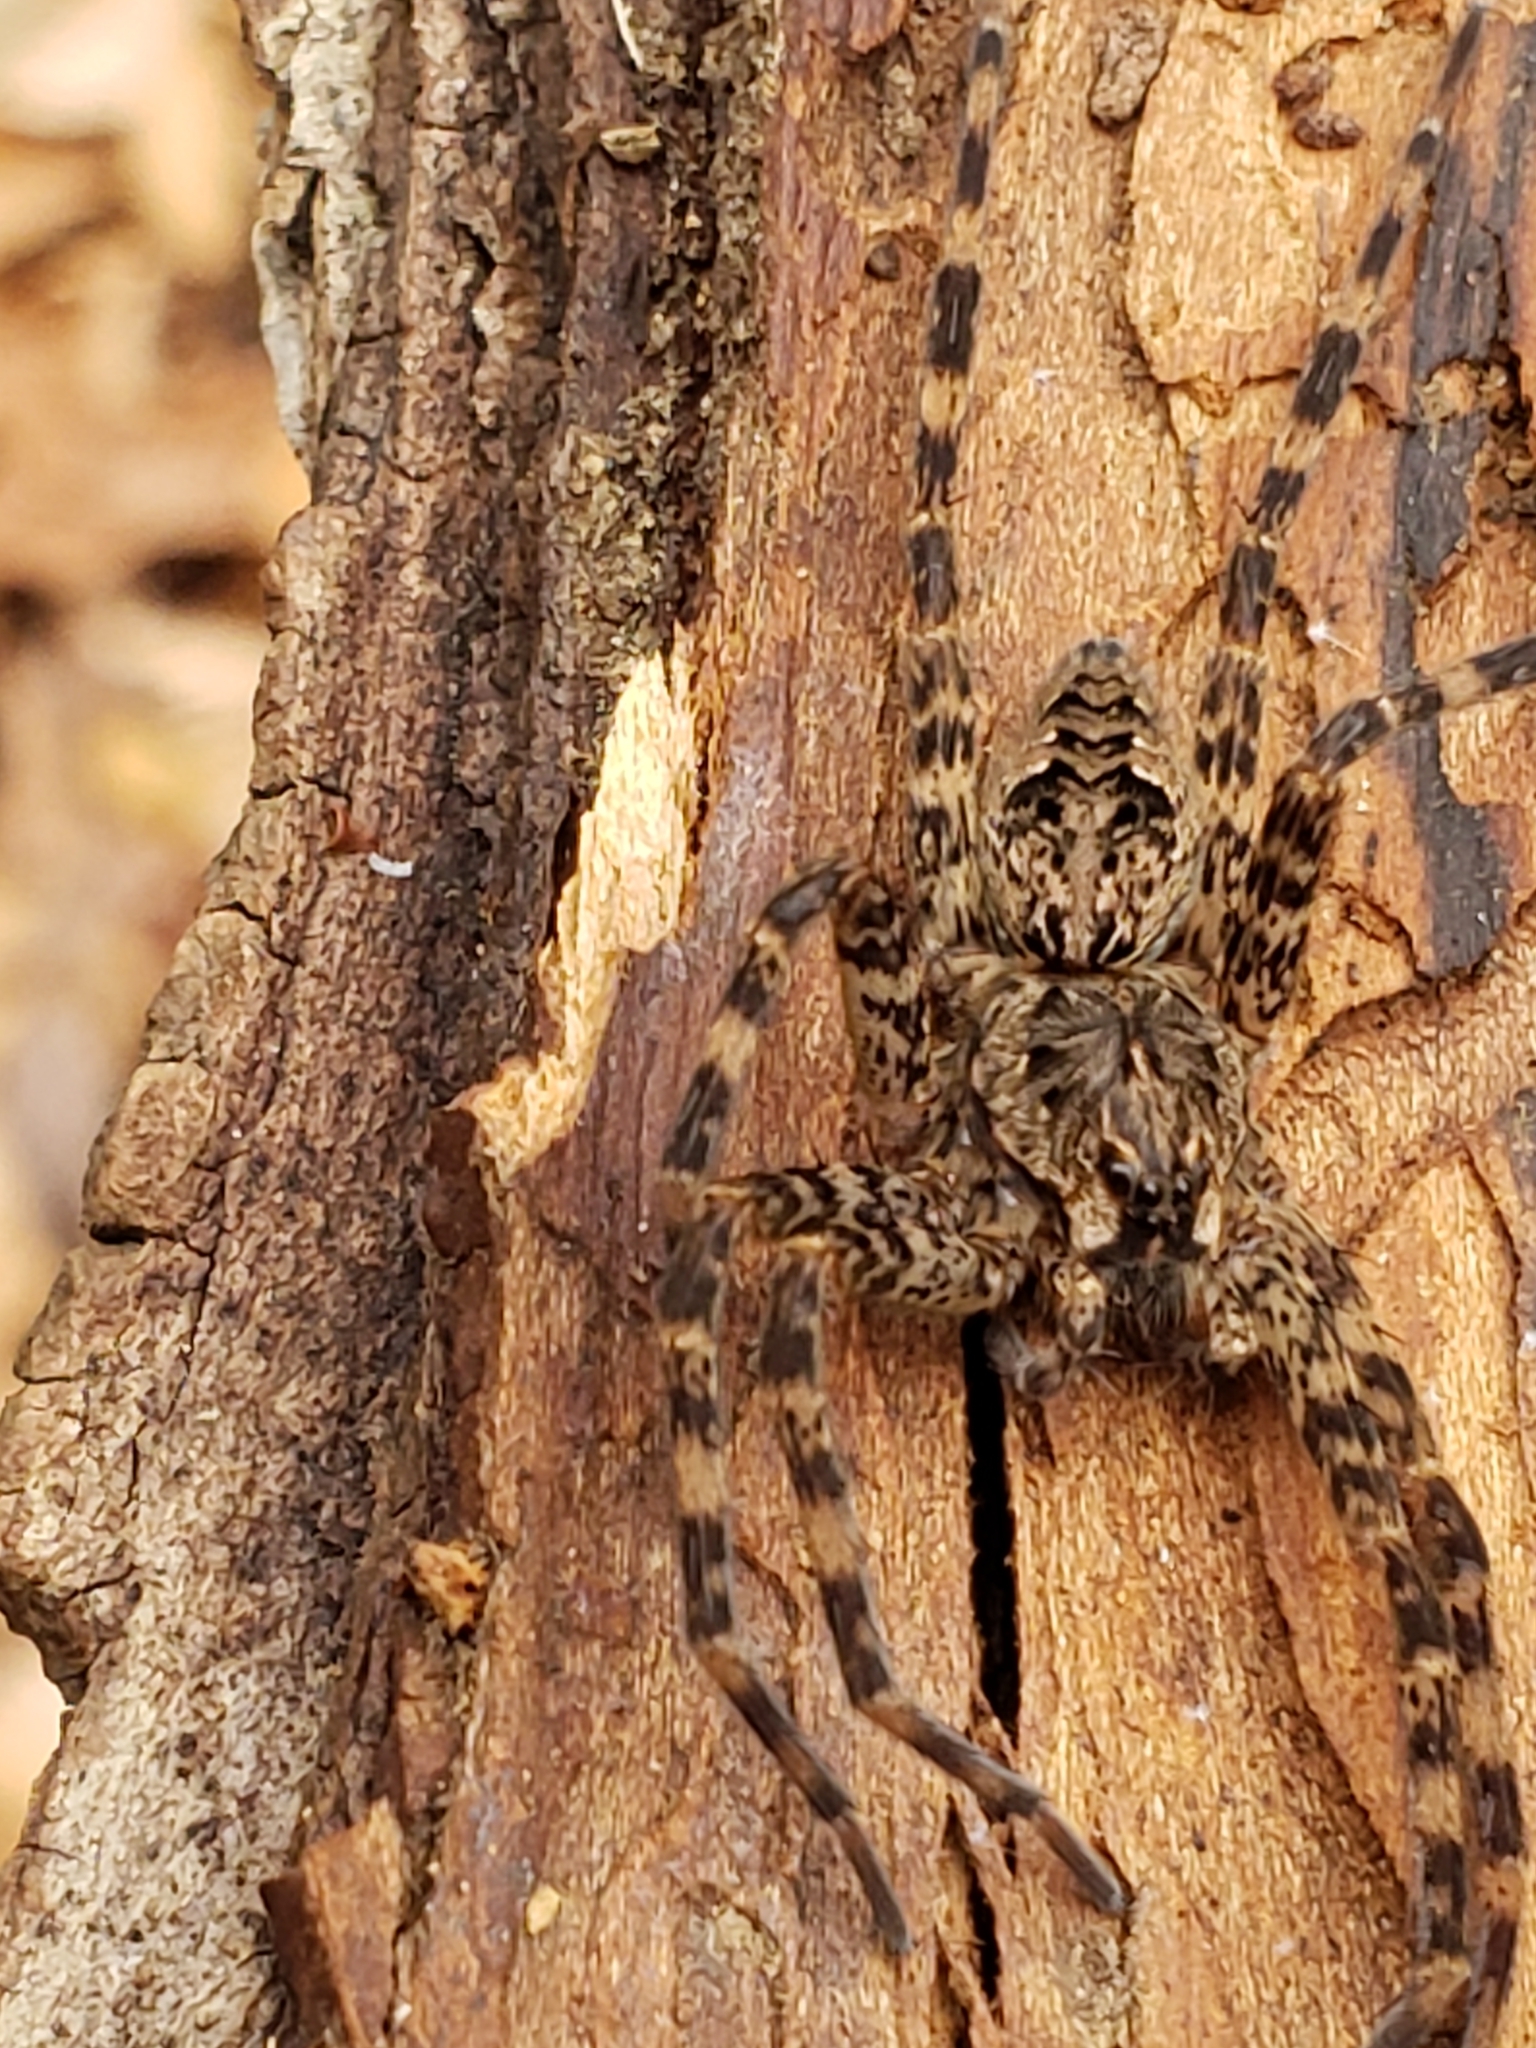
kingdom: Animalia
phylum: Arthropoda
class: Arachnida
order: Araneae
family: Pisauridae
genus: Dolomedes
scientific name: Dolomedes tenebrosus
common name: Dark fishing spider
